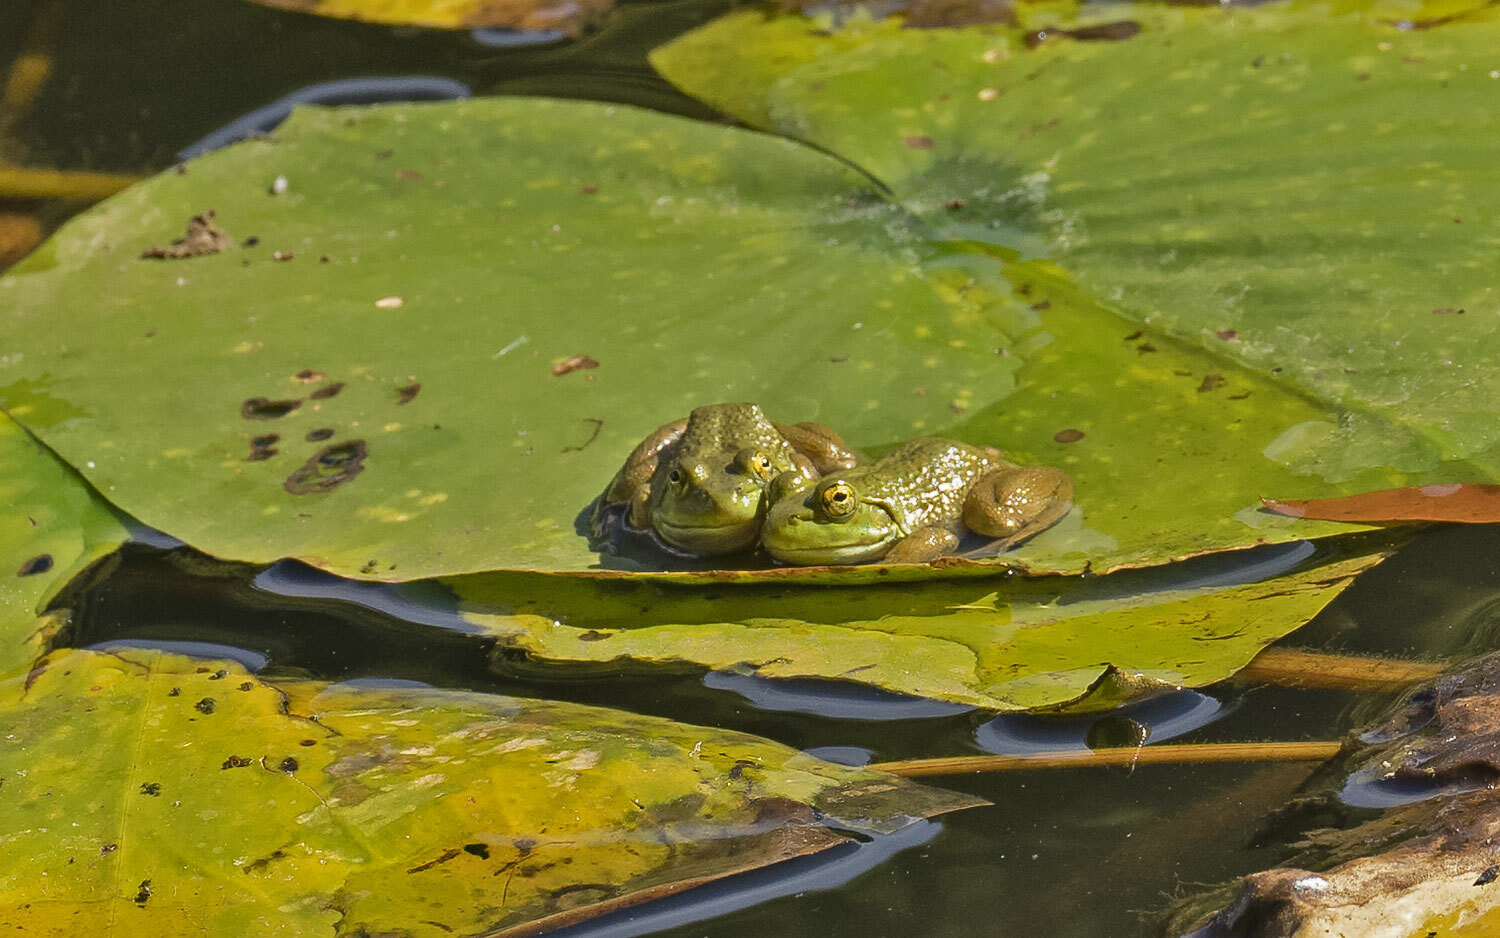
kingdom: Animalia
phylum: Chordata
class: Amphibia
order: Anura
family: Ranidae
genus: Lithobates
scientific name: Lithobates catesbeianus
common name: American bullfrog
